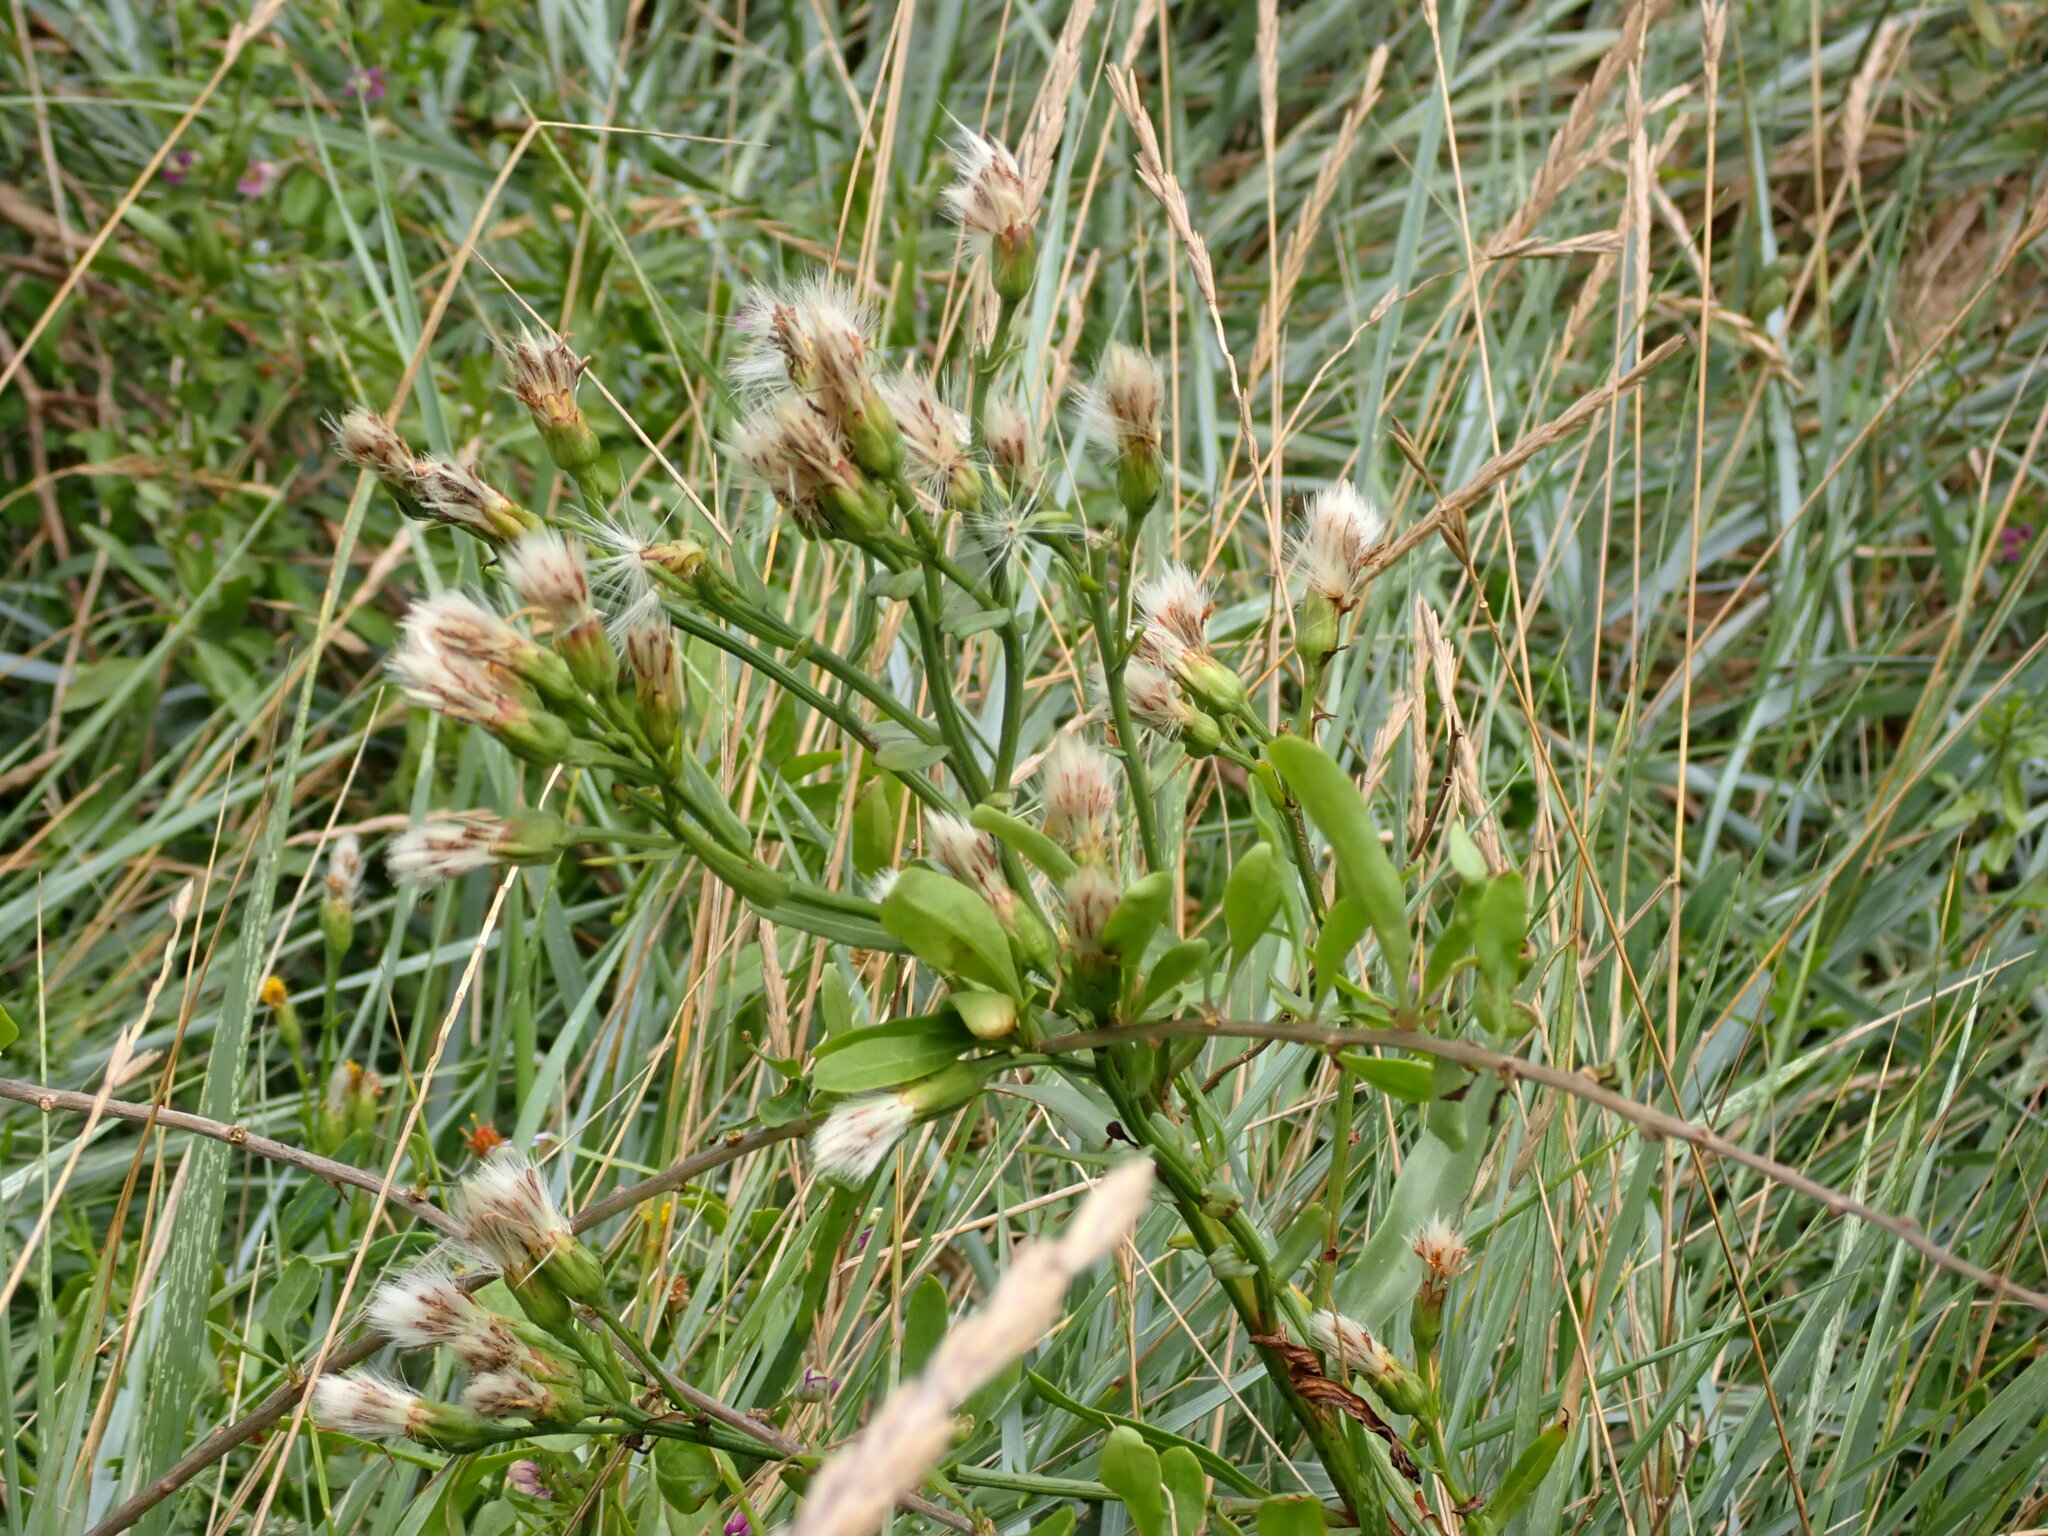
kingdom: Plantae
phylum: Tracheophyta
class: Magnoliopsida
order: Asterales
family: Asteraceae
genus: Tripolium
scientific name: Tripolium pannonicum
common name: Sea aster
